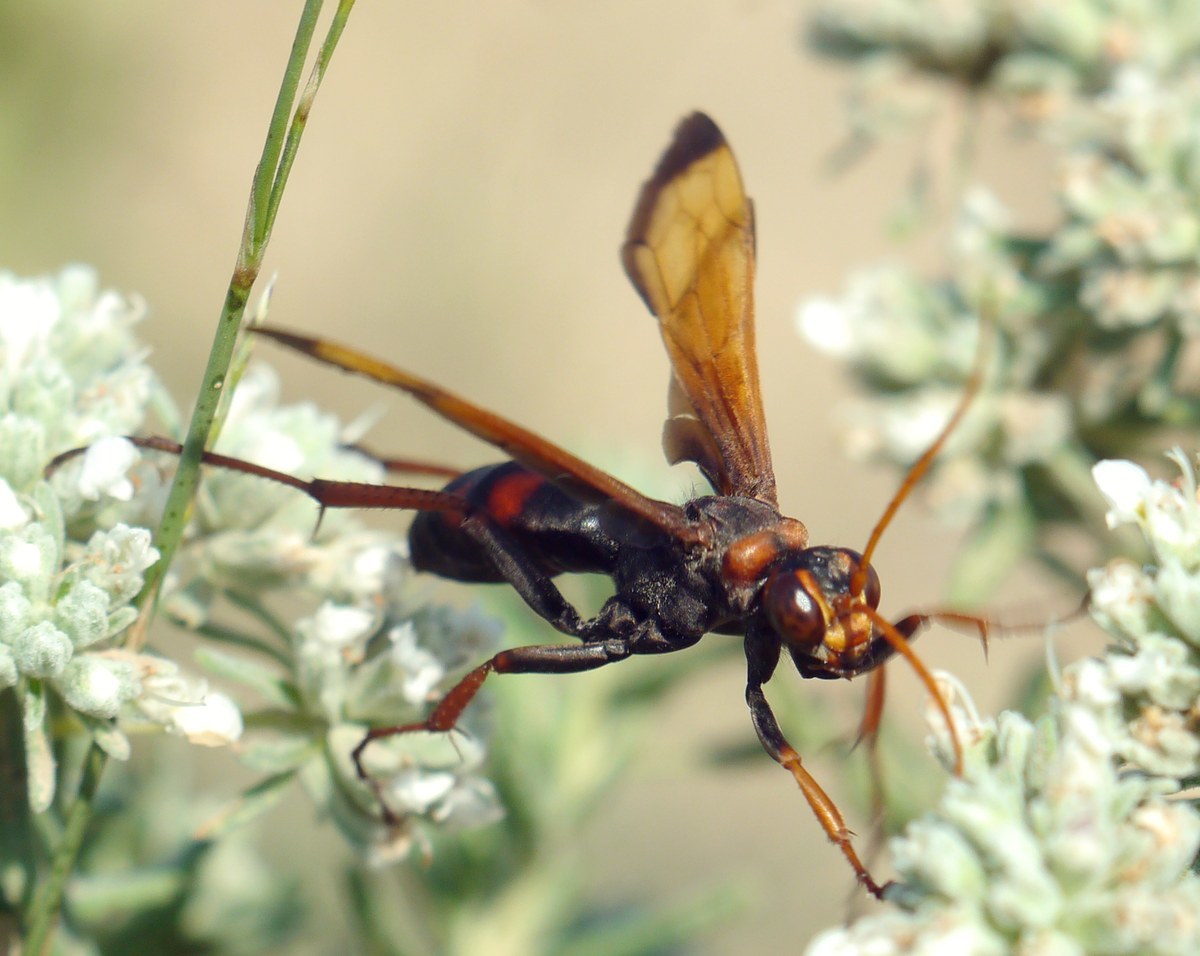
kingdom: Animalia
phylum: Arthropoda
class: Insecta
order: Hymenoptera
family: Pompilidae
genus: Cryptocheilus
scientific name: Cryptocheilus rubellus
